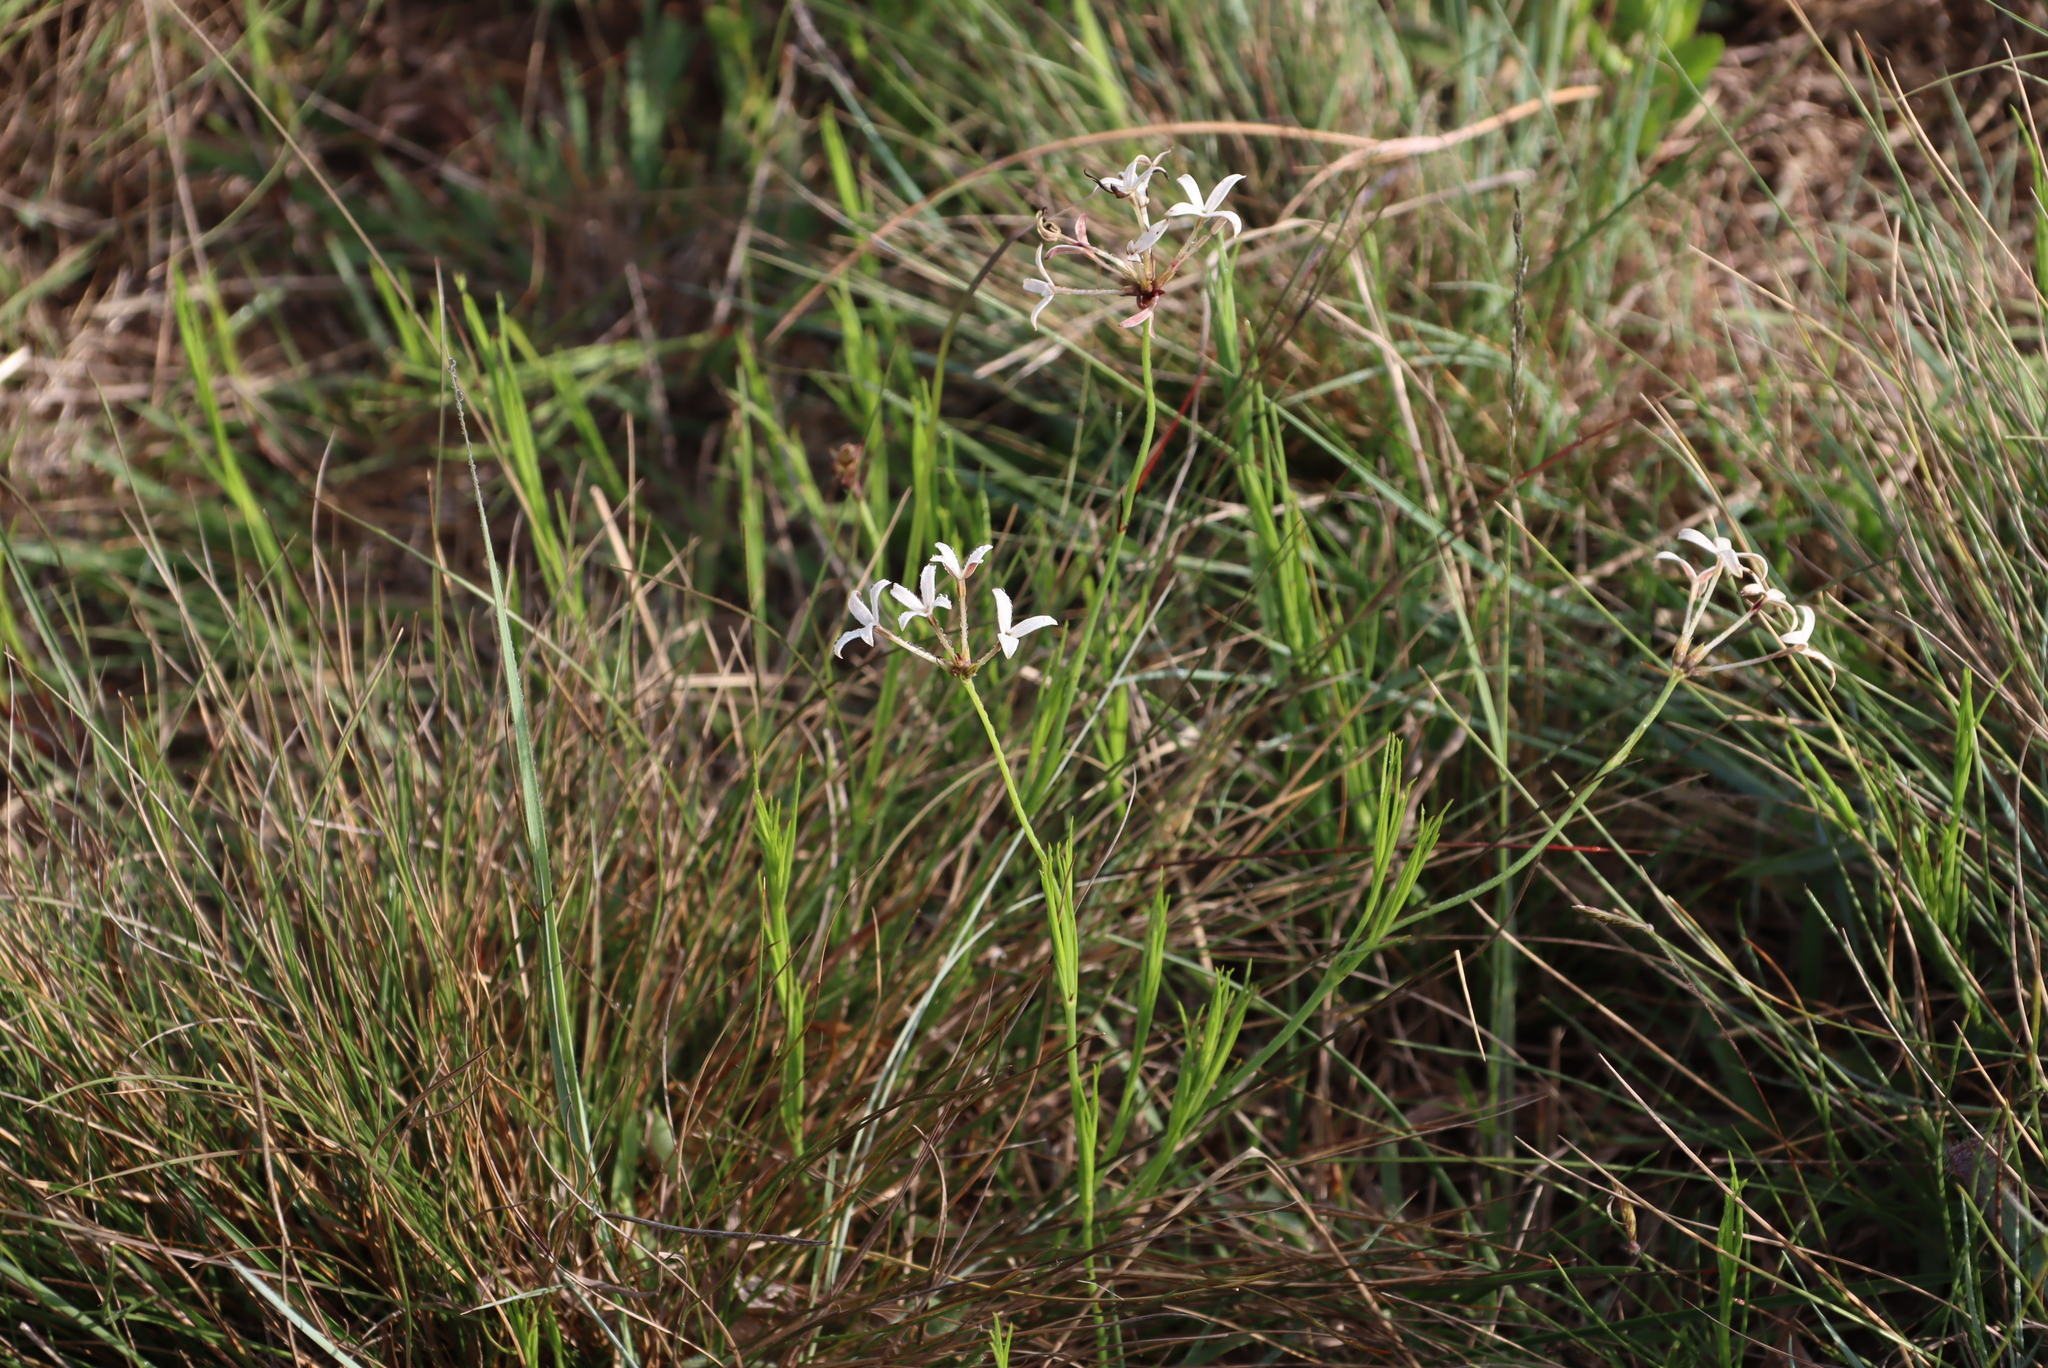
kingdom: Plantae
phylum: Tracheophyta
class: Magnoliopsida
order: Gentianales
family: Rubiaceae
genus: Kohautia
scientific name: Kohautia amatymbica
